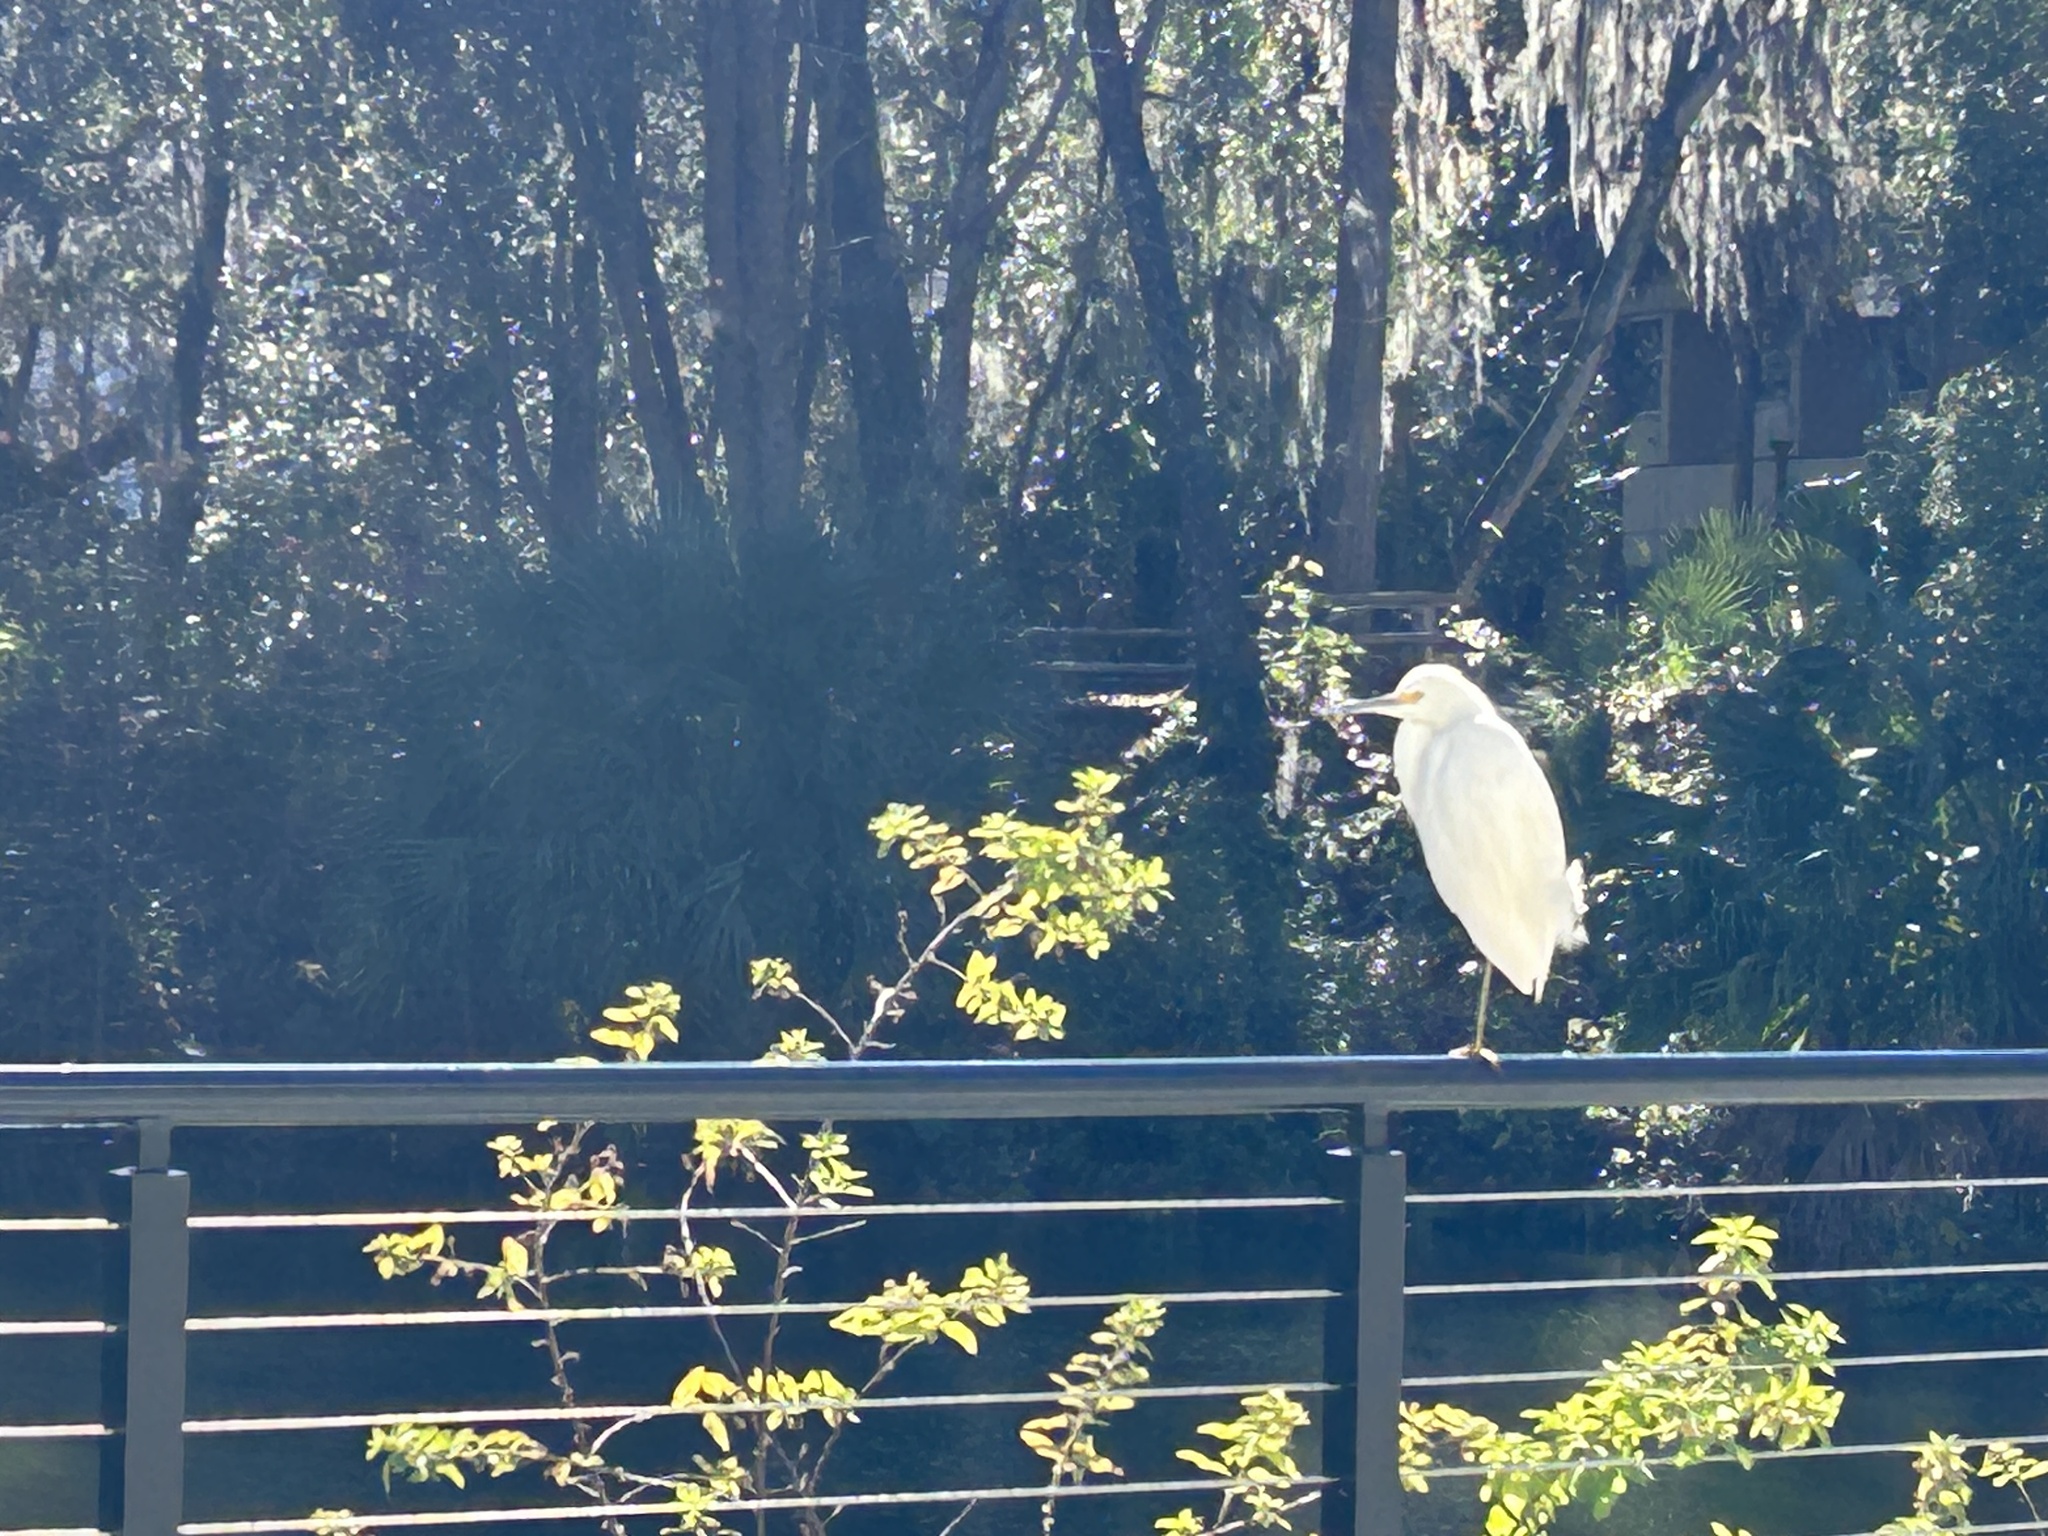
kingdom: Animalia
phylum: Chordata
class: Aves
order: Pelecaniformes
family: Ardeidae
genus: Egretta
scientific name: Egretta thula
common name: Snowy egret
